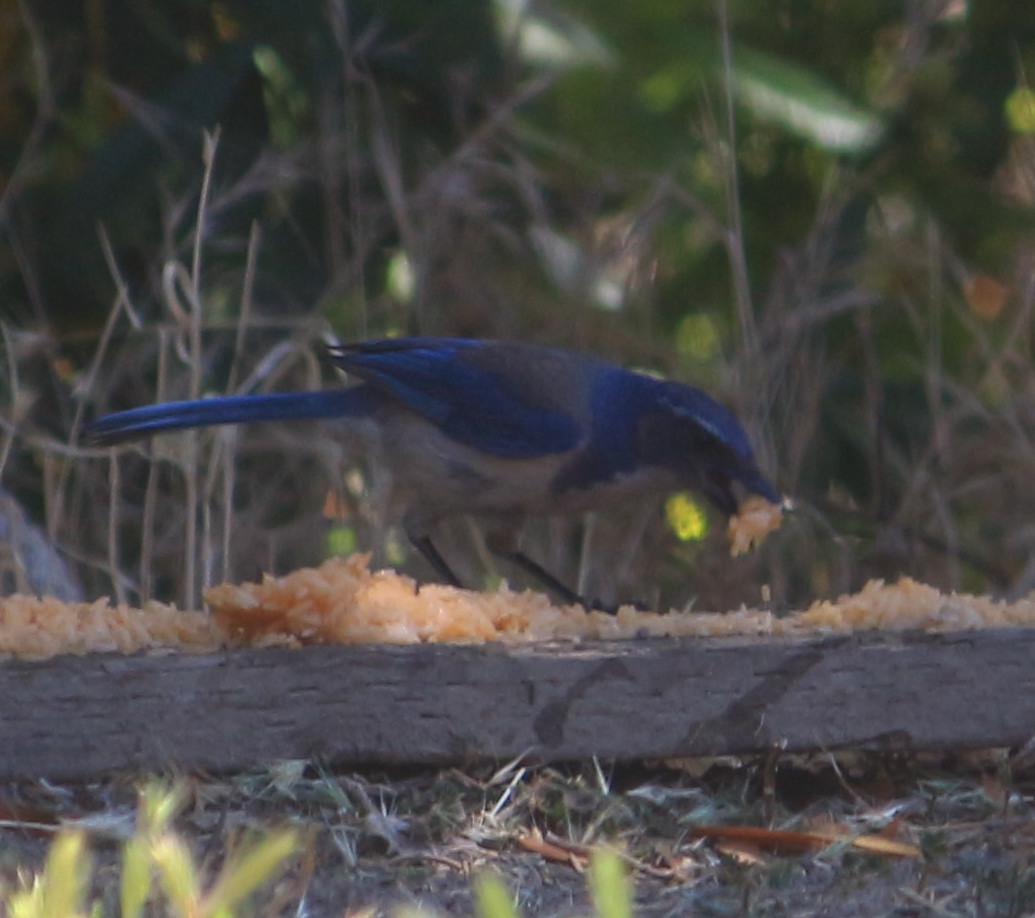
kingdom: Animalia
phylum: Chordata
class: Aves
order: Passeriformes
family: Corvidae
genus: Aphelocoma
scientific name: Aphelocoma californica
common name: California scrub-jay
